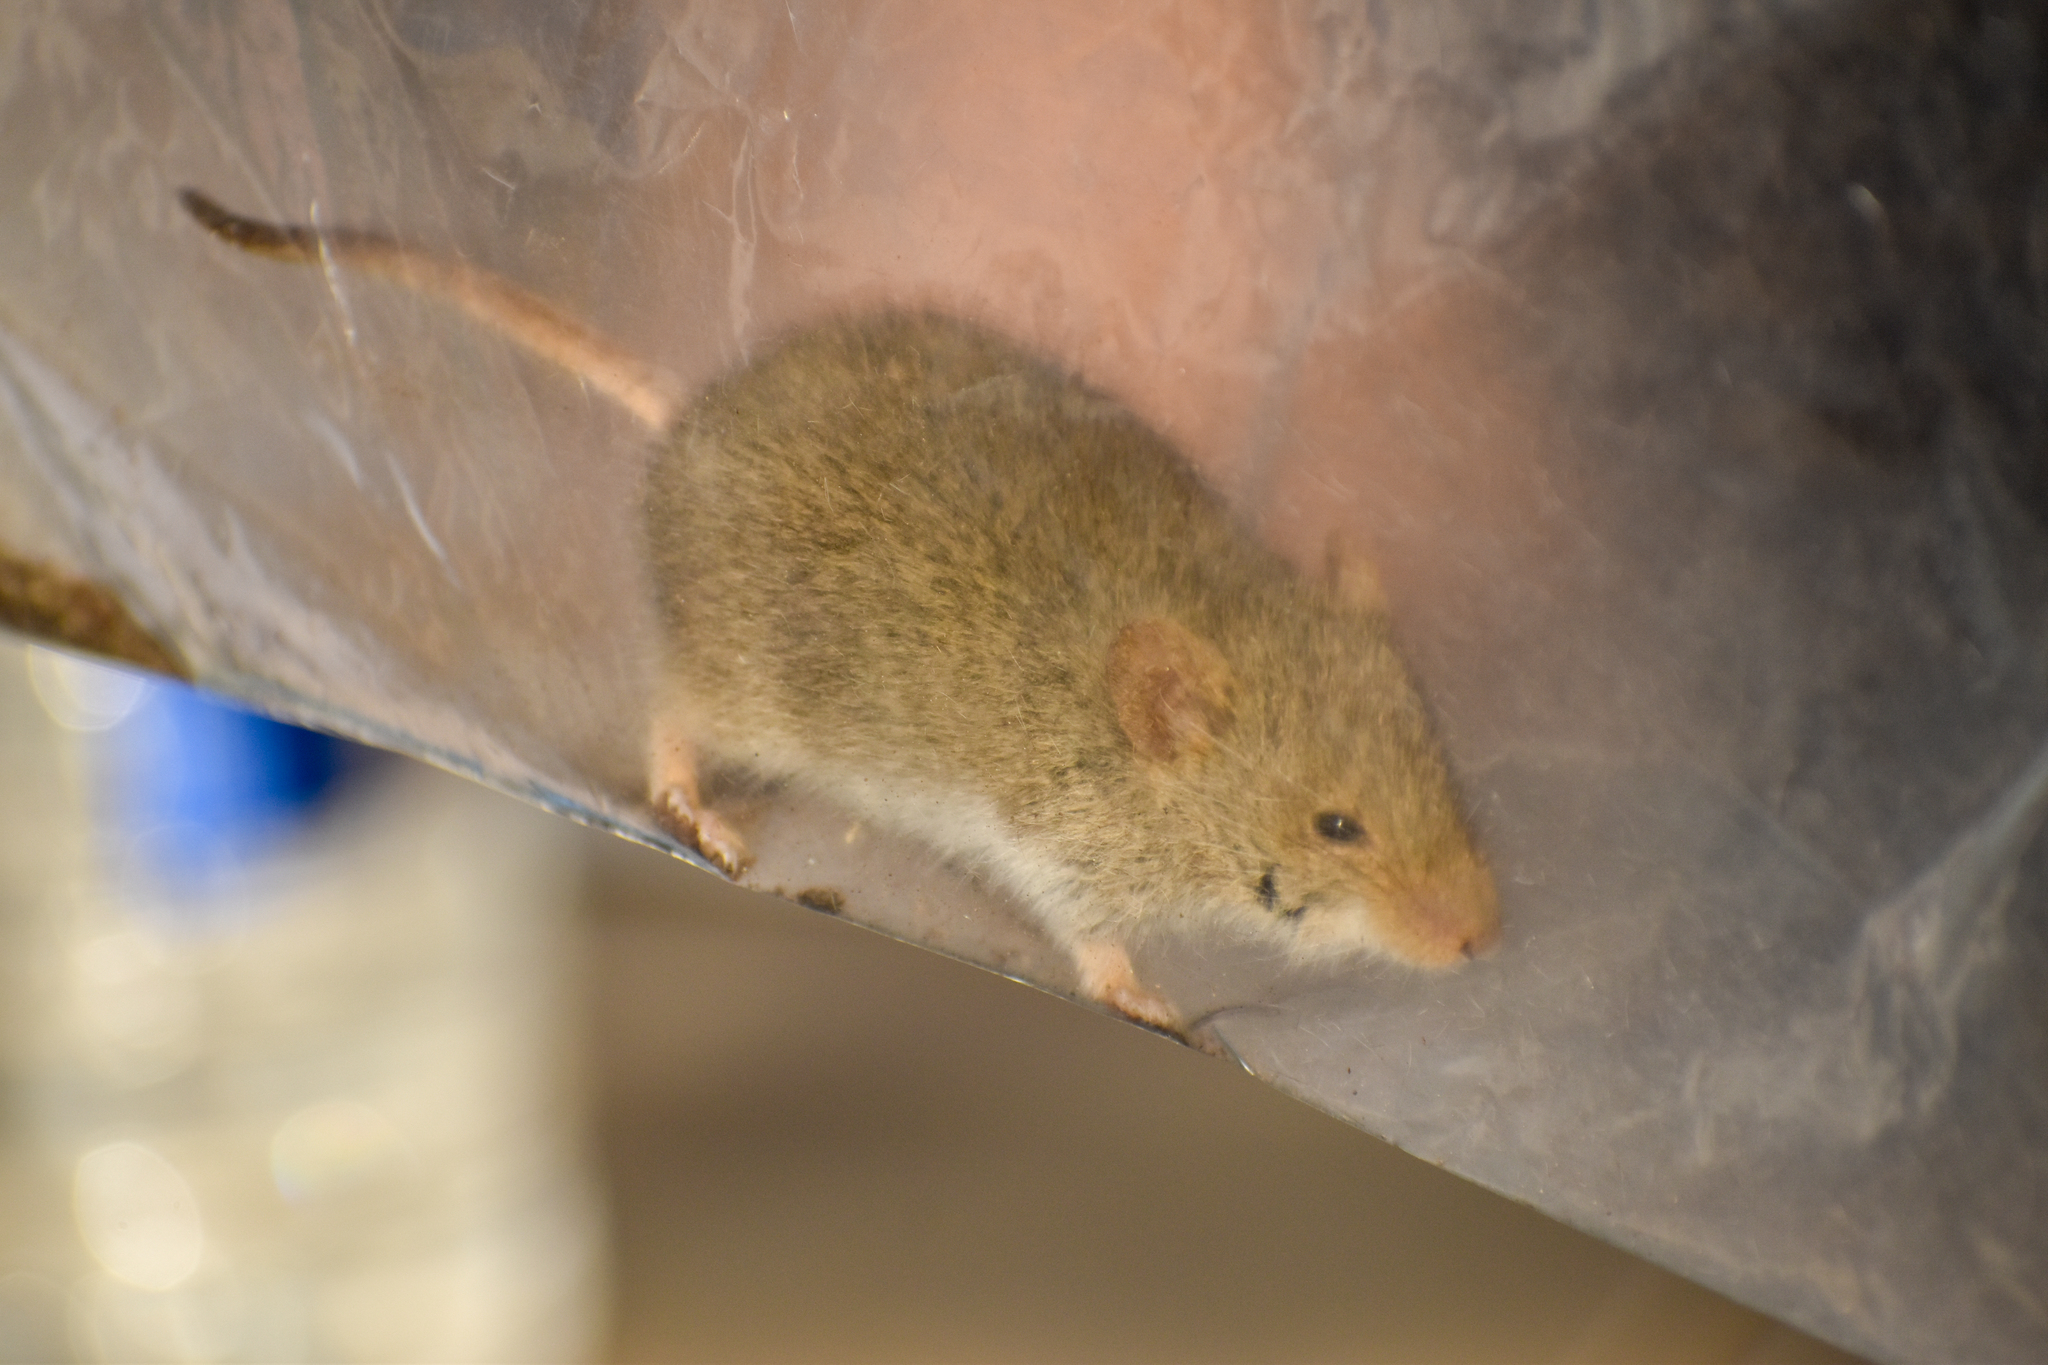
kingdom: Animalia
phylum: Chordata
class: Mammalia
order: Rodentia
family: Cricetidae
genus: Abrothrix
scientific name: Abrothrix olivaceus
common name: Olive-colored akodont
